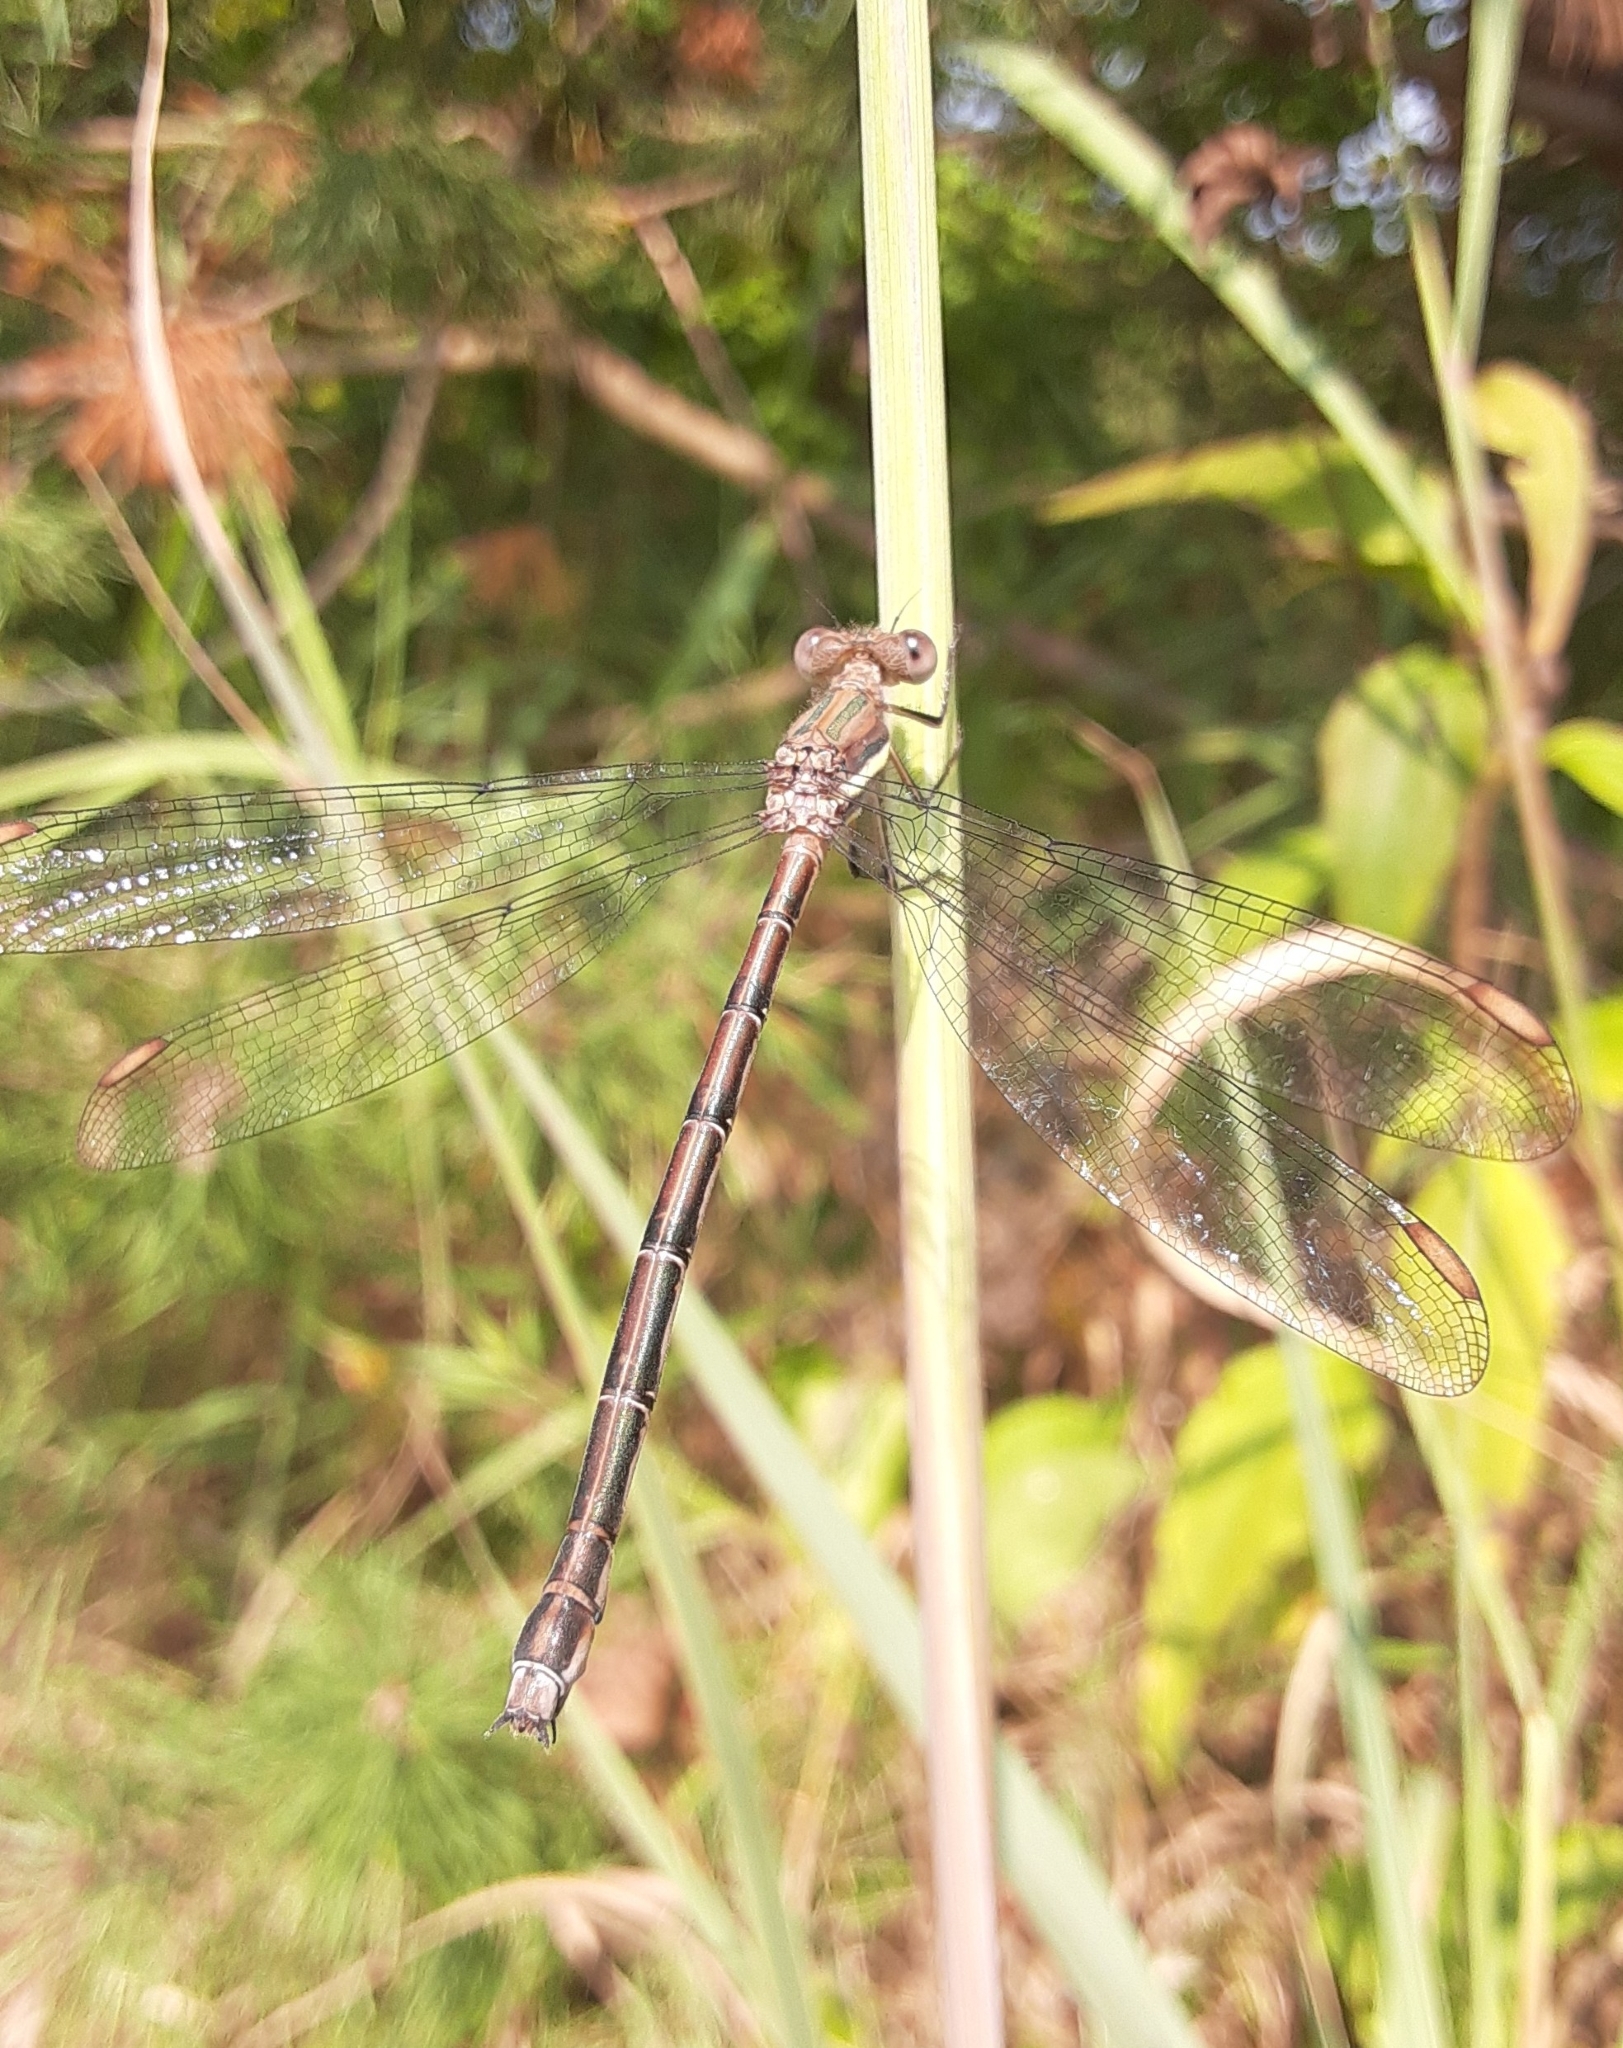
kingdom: Animalia
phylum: Arthropoda
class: Insecta
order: Odonata
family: Lestidae
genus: Archilestes
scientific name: Archilestes grandis
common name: Great spreadwing
